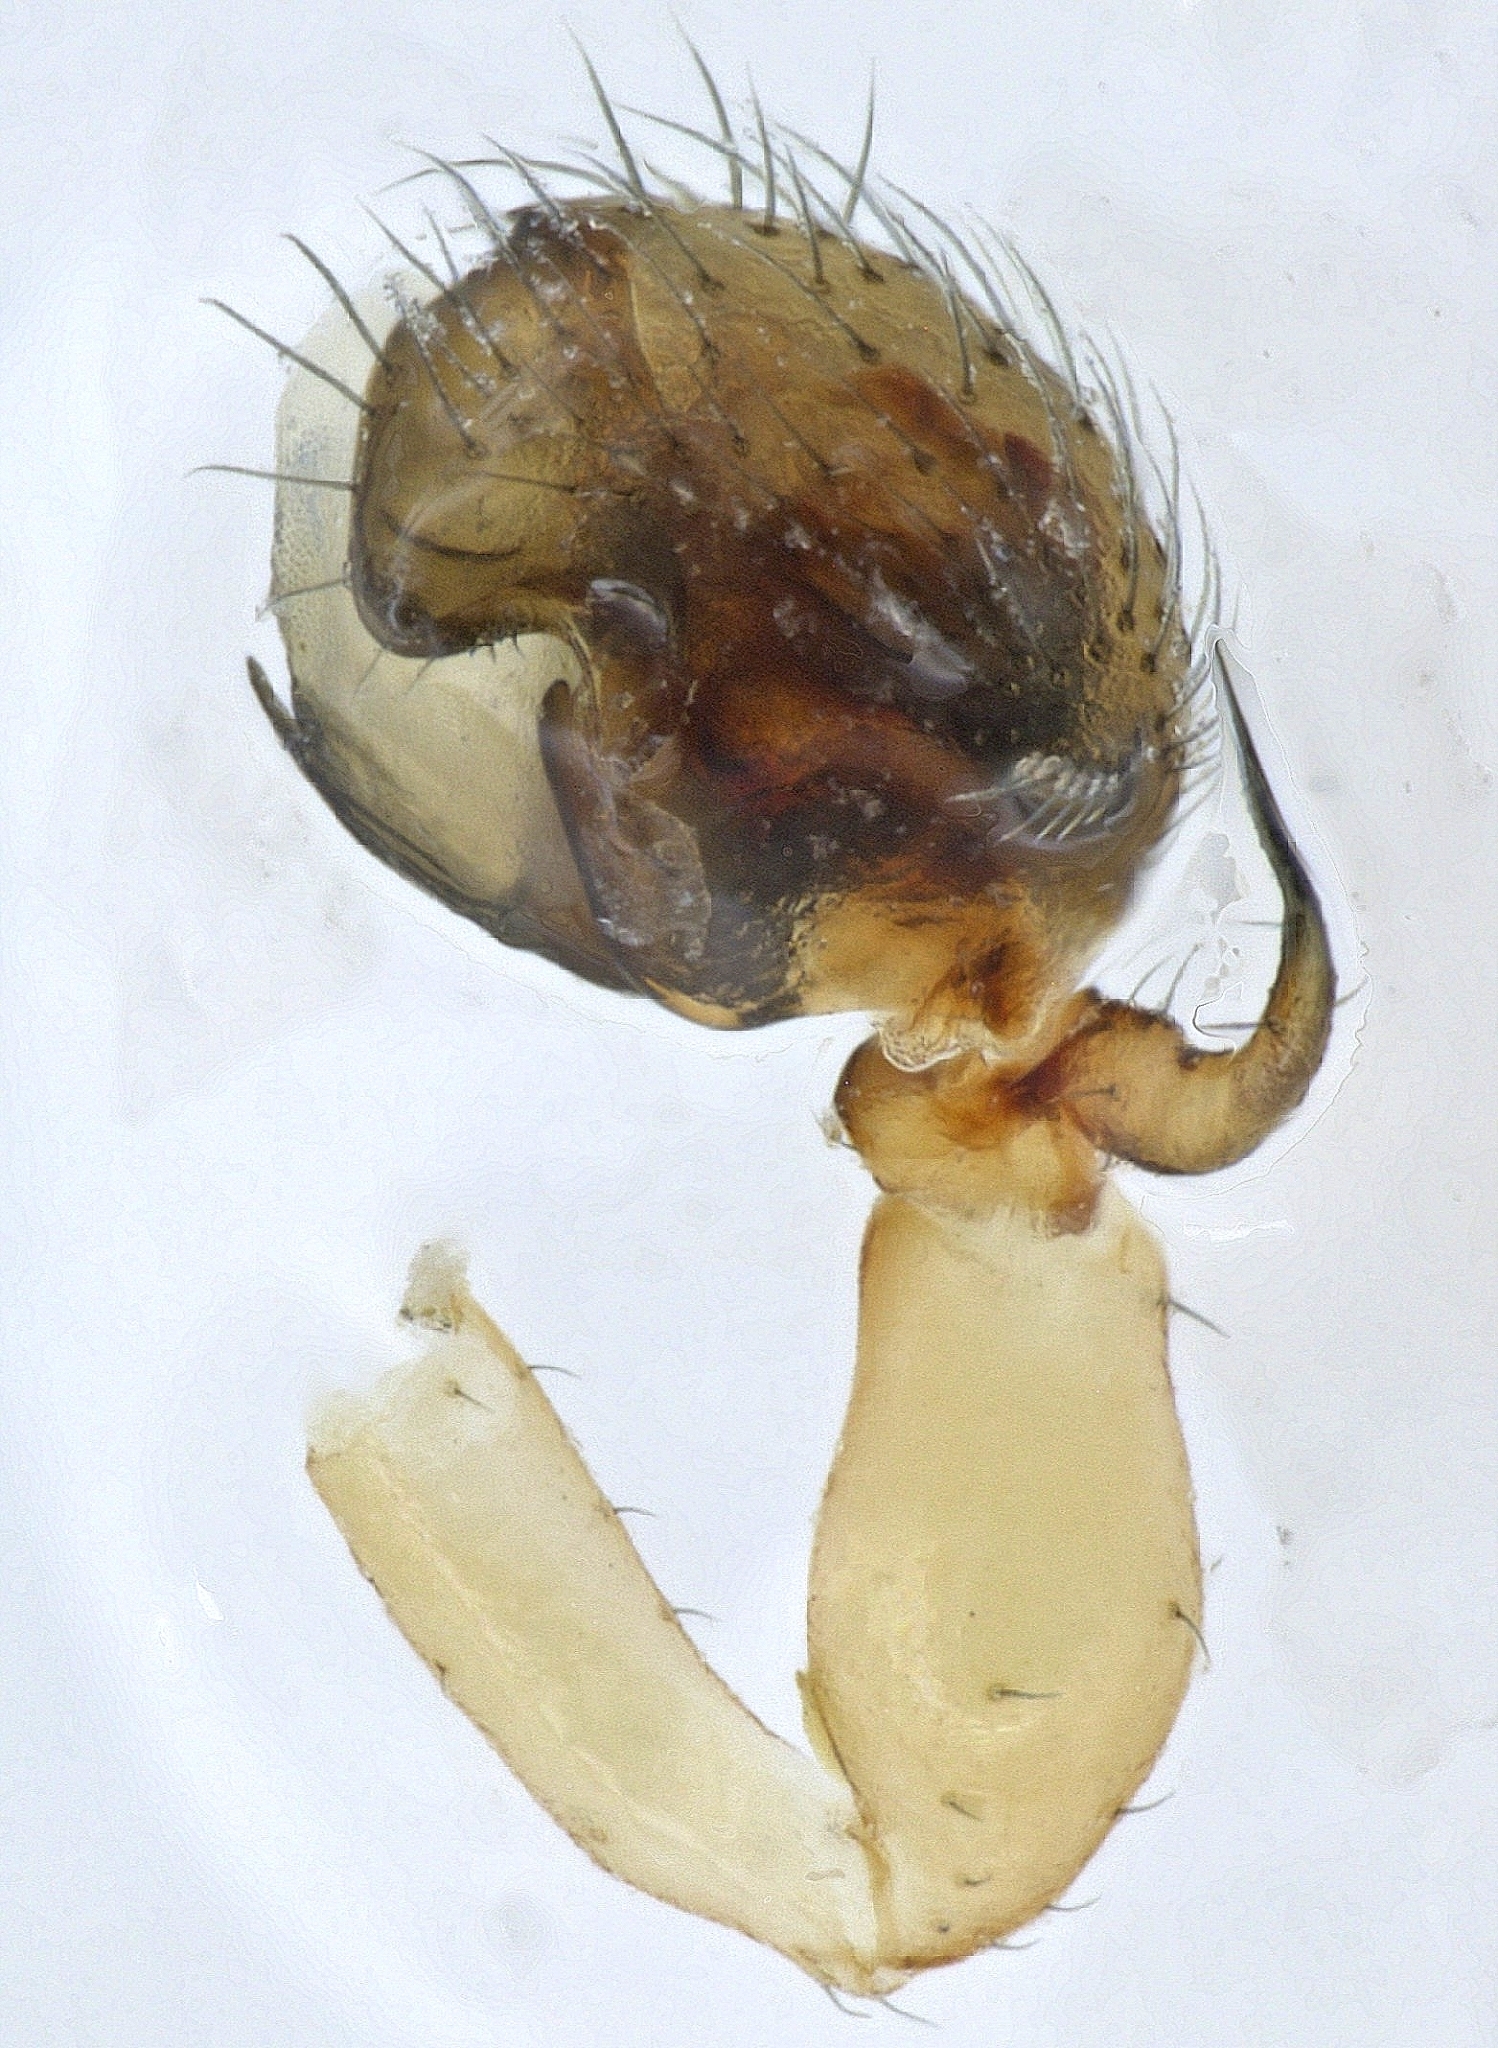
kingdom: Animalia
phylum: Arthropoda
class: Arachnida
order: Araneae
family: Linyphiidae
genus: Ceraticelus
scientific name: Ceraticelus artemisiae
